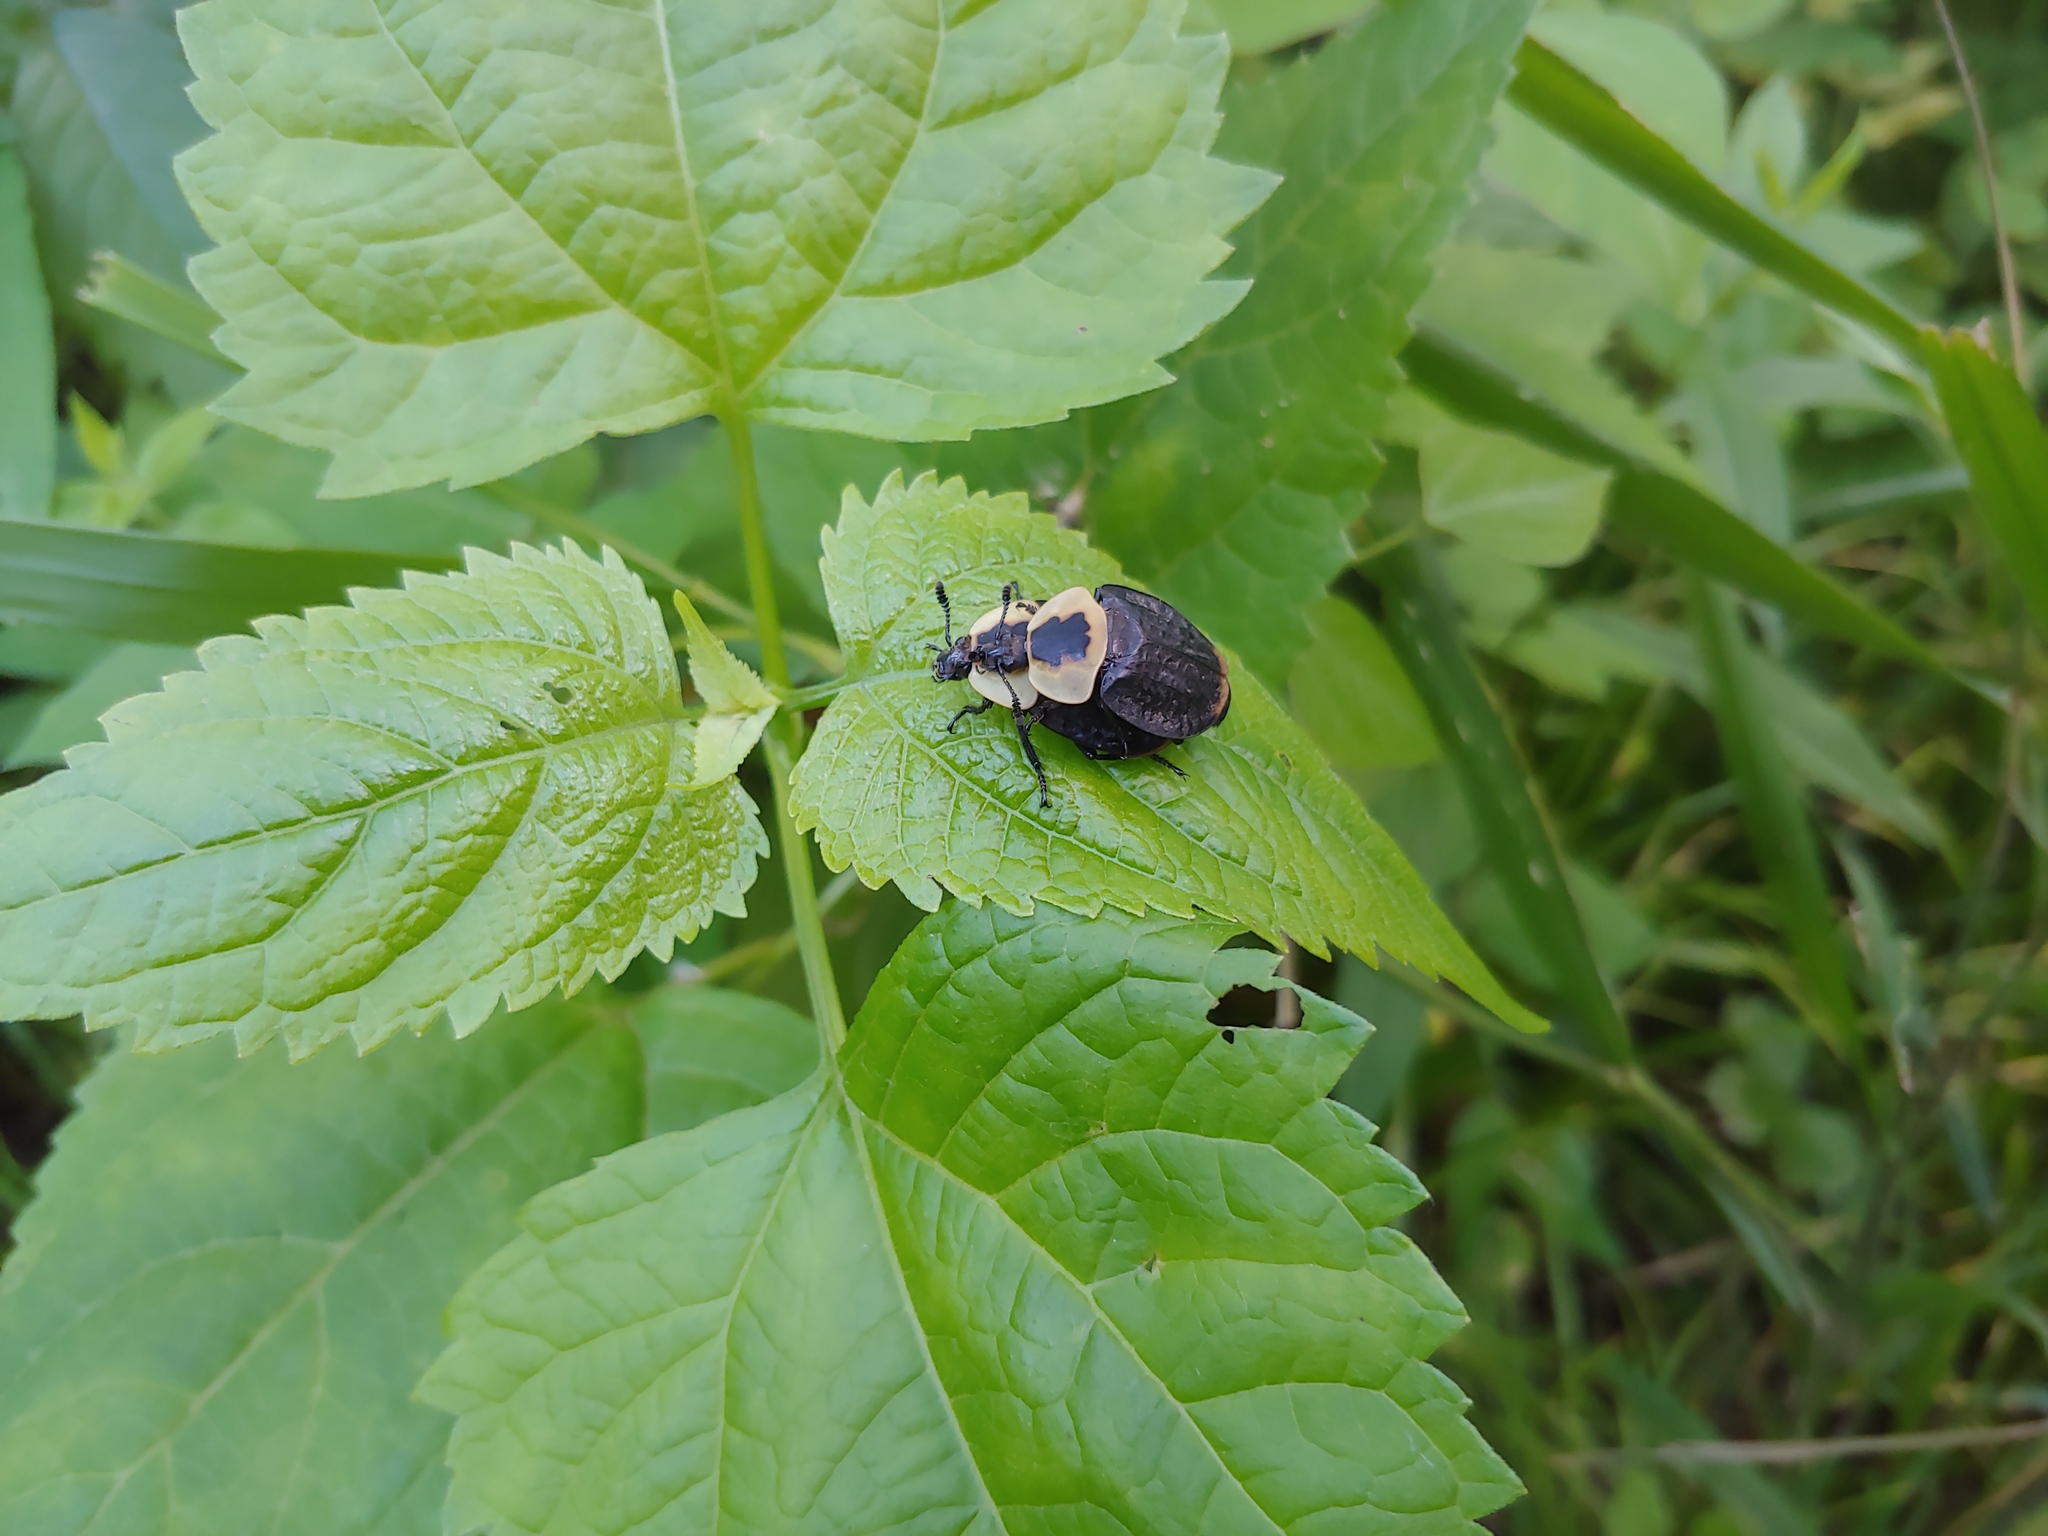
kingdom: Animalia
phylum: Arthropoda
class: Insecta
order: Coleoptera
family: Staphylinidae
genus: Necrophila
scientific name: Necrophila americana
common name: American carrion beetle
